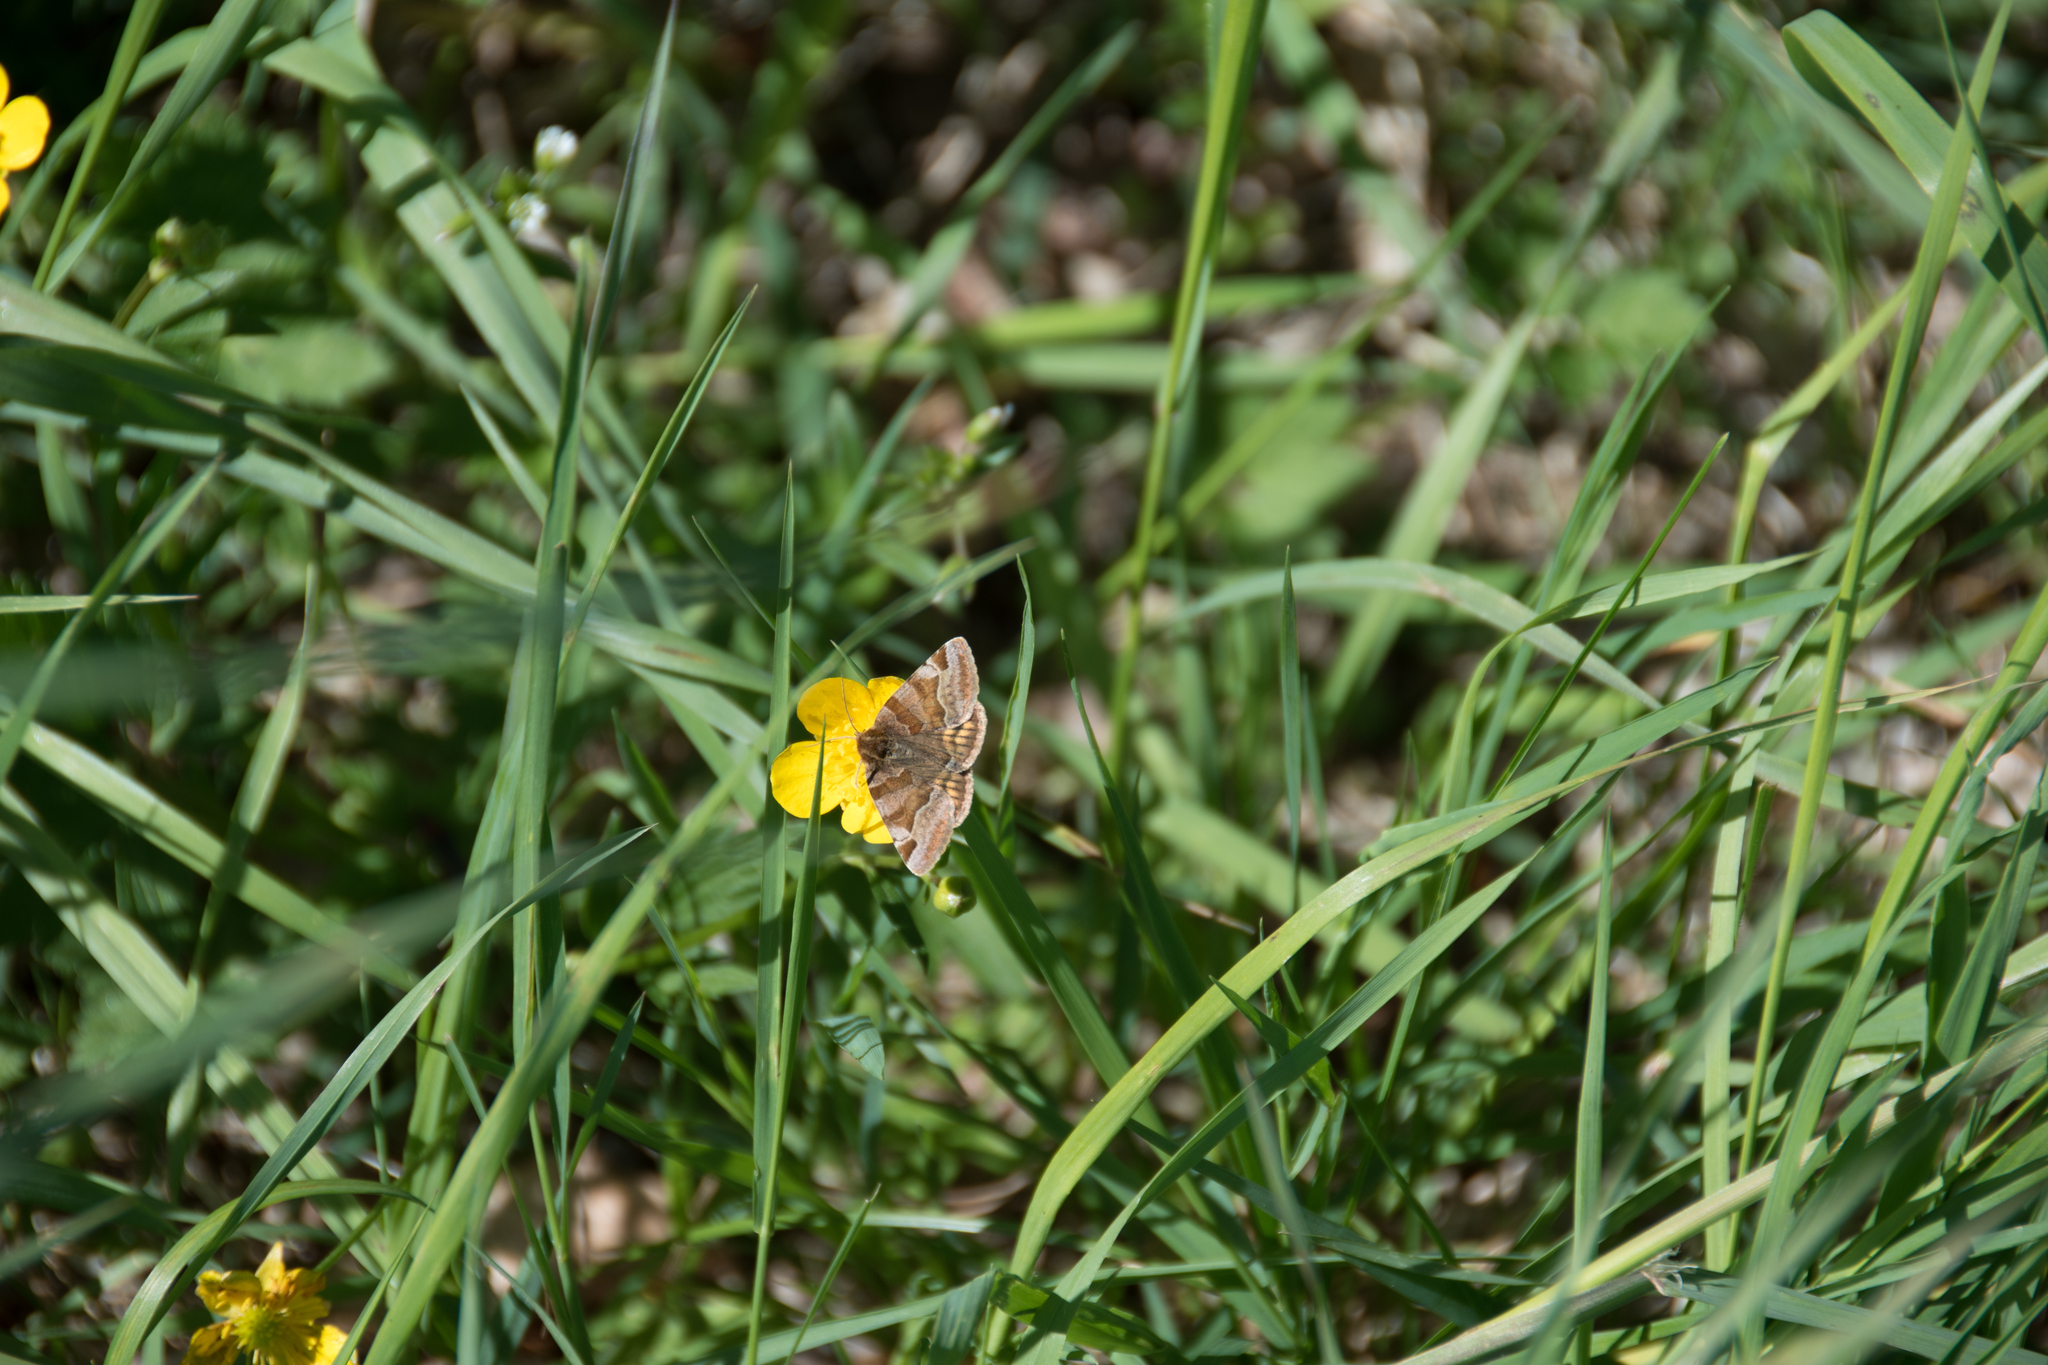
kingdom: Animalia
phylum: Arthropoda
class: Insecta
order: Lepidoptera
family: Erebidae
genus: Euclidia
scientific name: Euclidia glyphica
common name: Burnet companion
